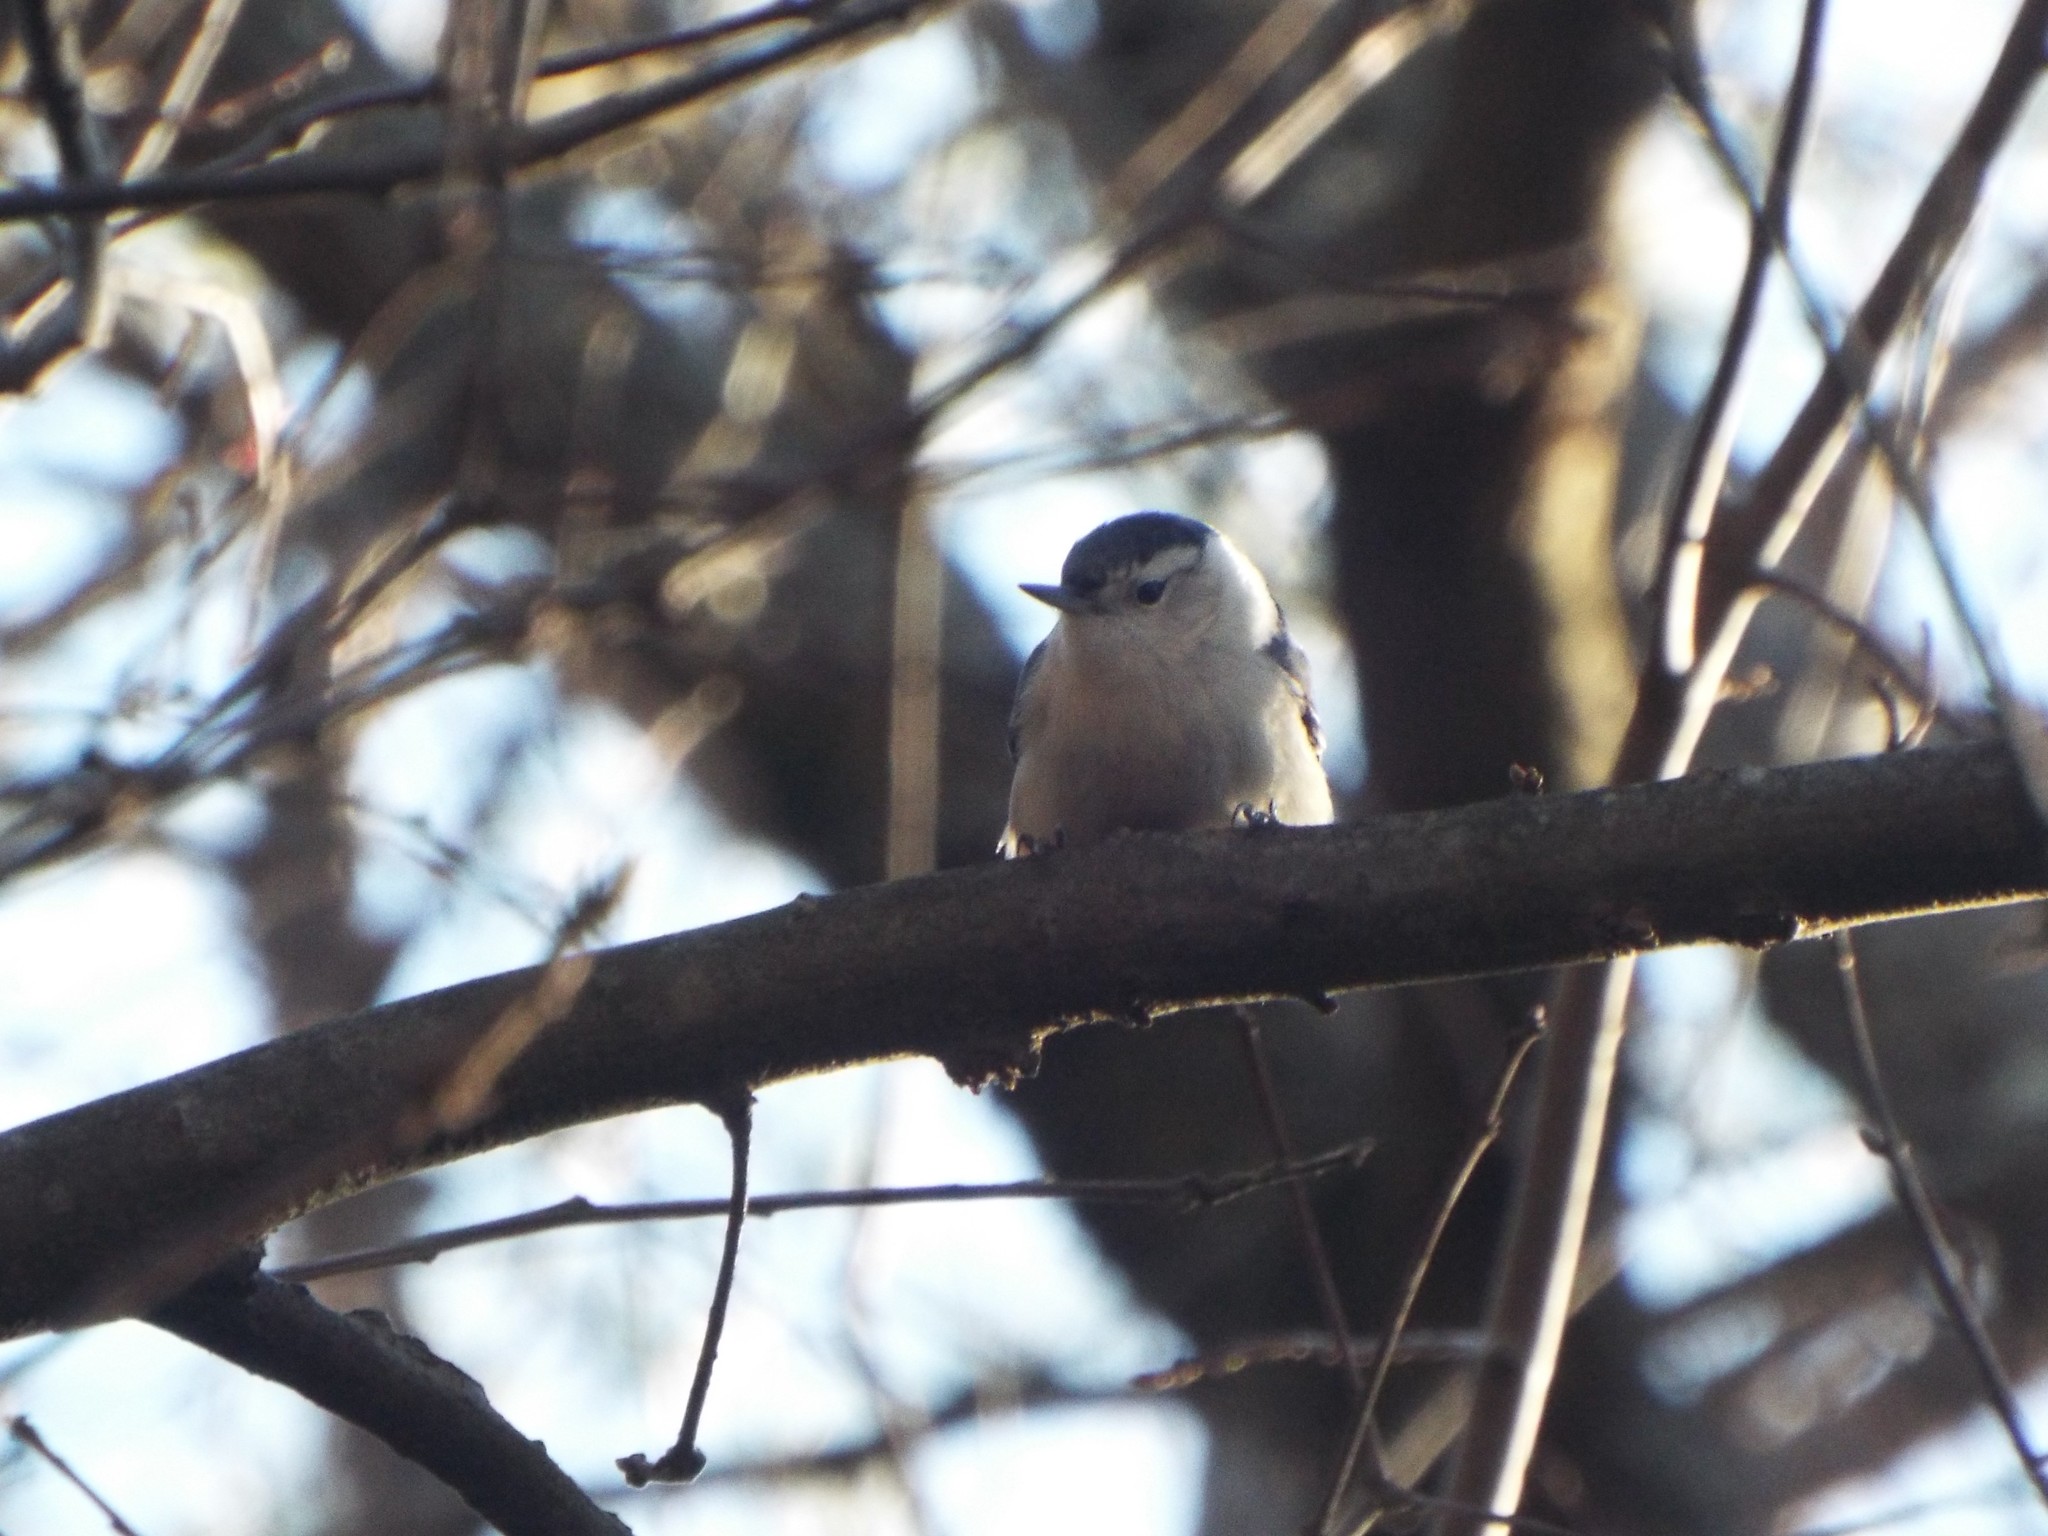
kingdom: Animalia
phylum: Chordata
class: Aves
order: Passeriformes
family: Sittidae
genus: Sitta
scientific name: Sitta carolinensis
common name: White-breasted nuthatch
